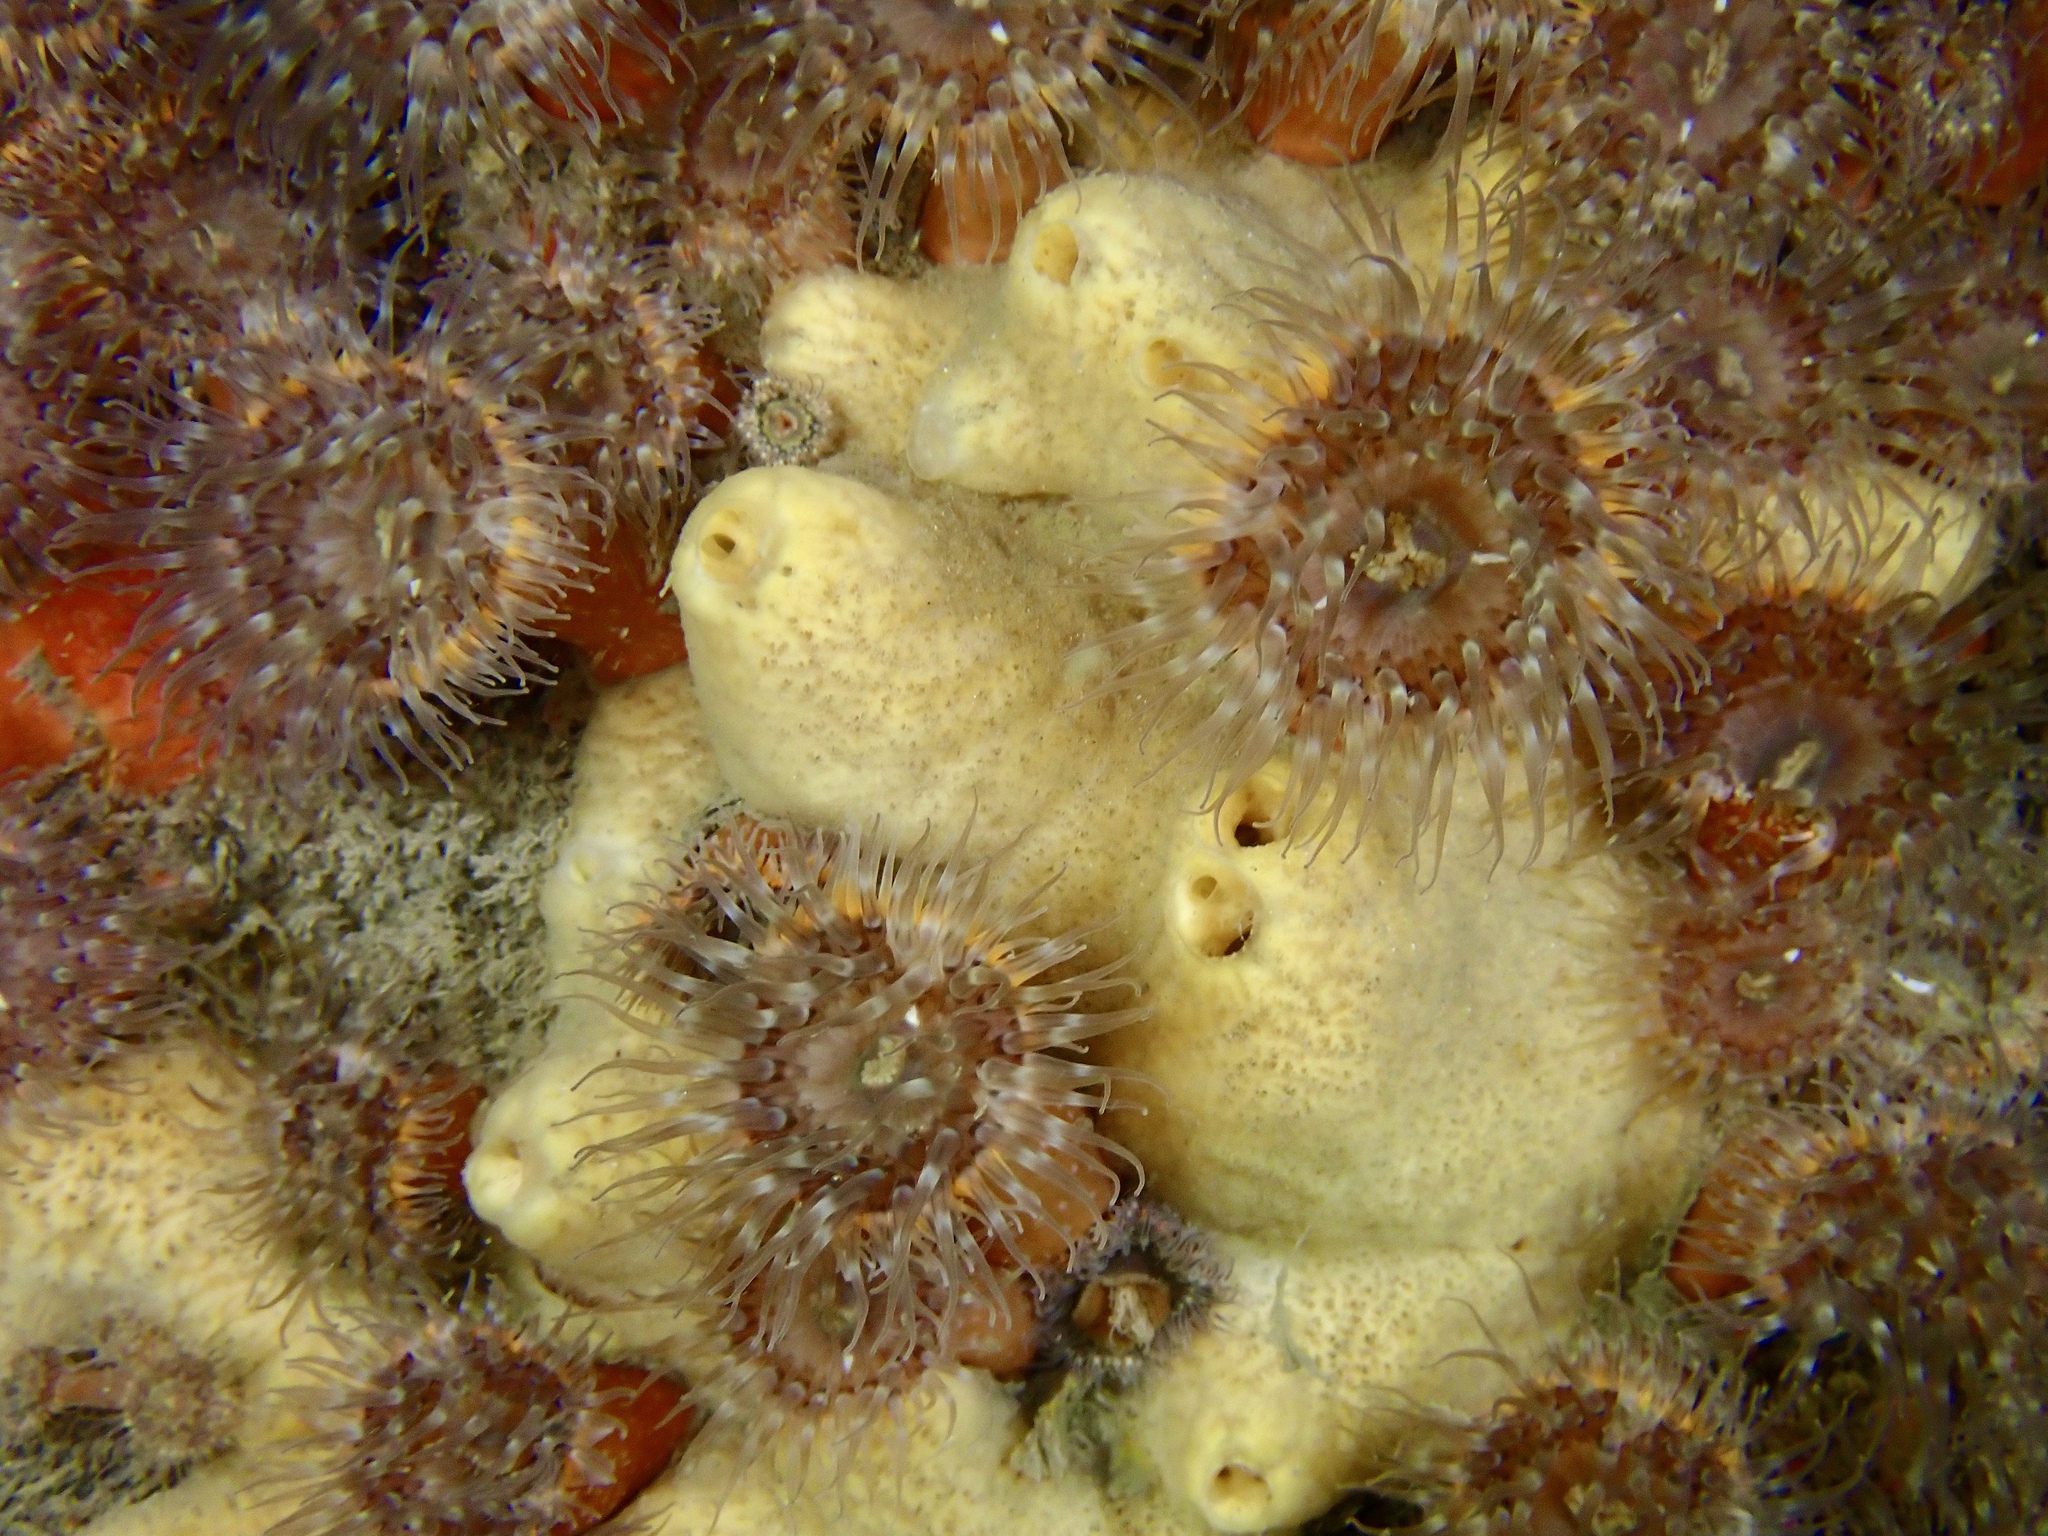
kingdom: Animalia
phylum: Porifera
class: Demospongiae
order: Poecilosclerida
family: Myxillidae
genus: Myxilla
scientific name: Myxilla incrustans
